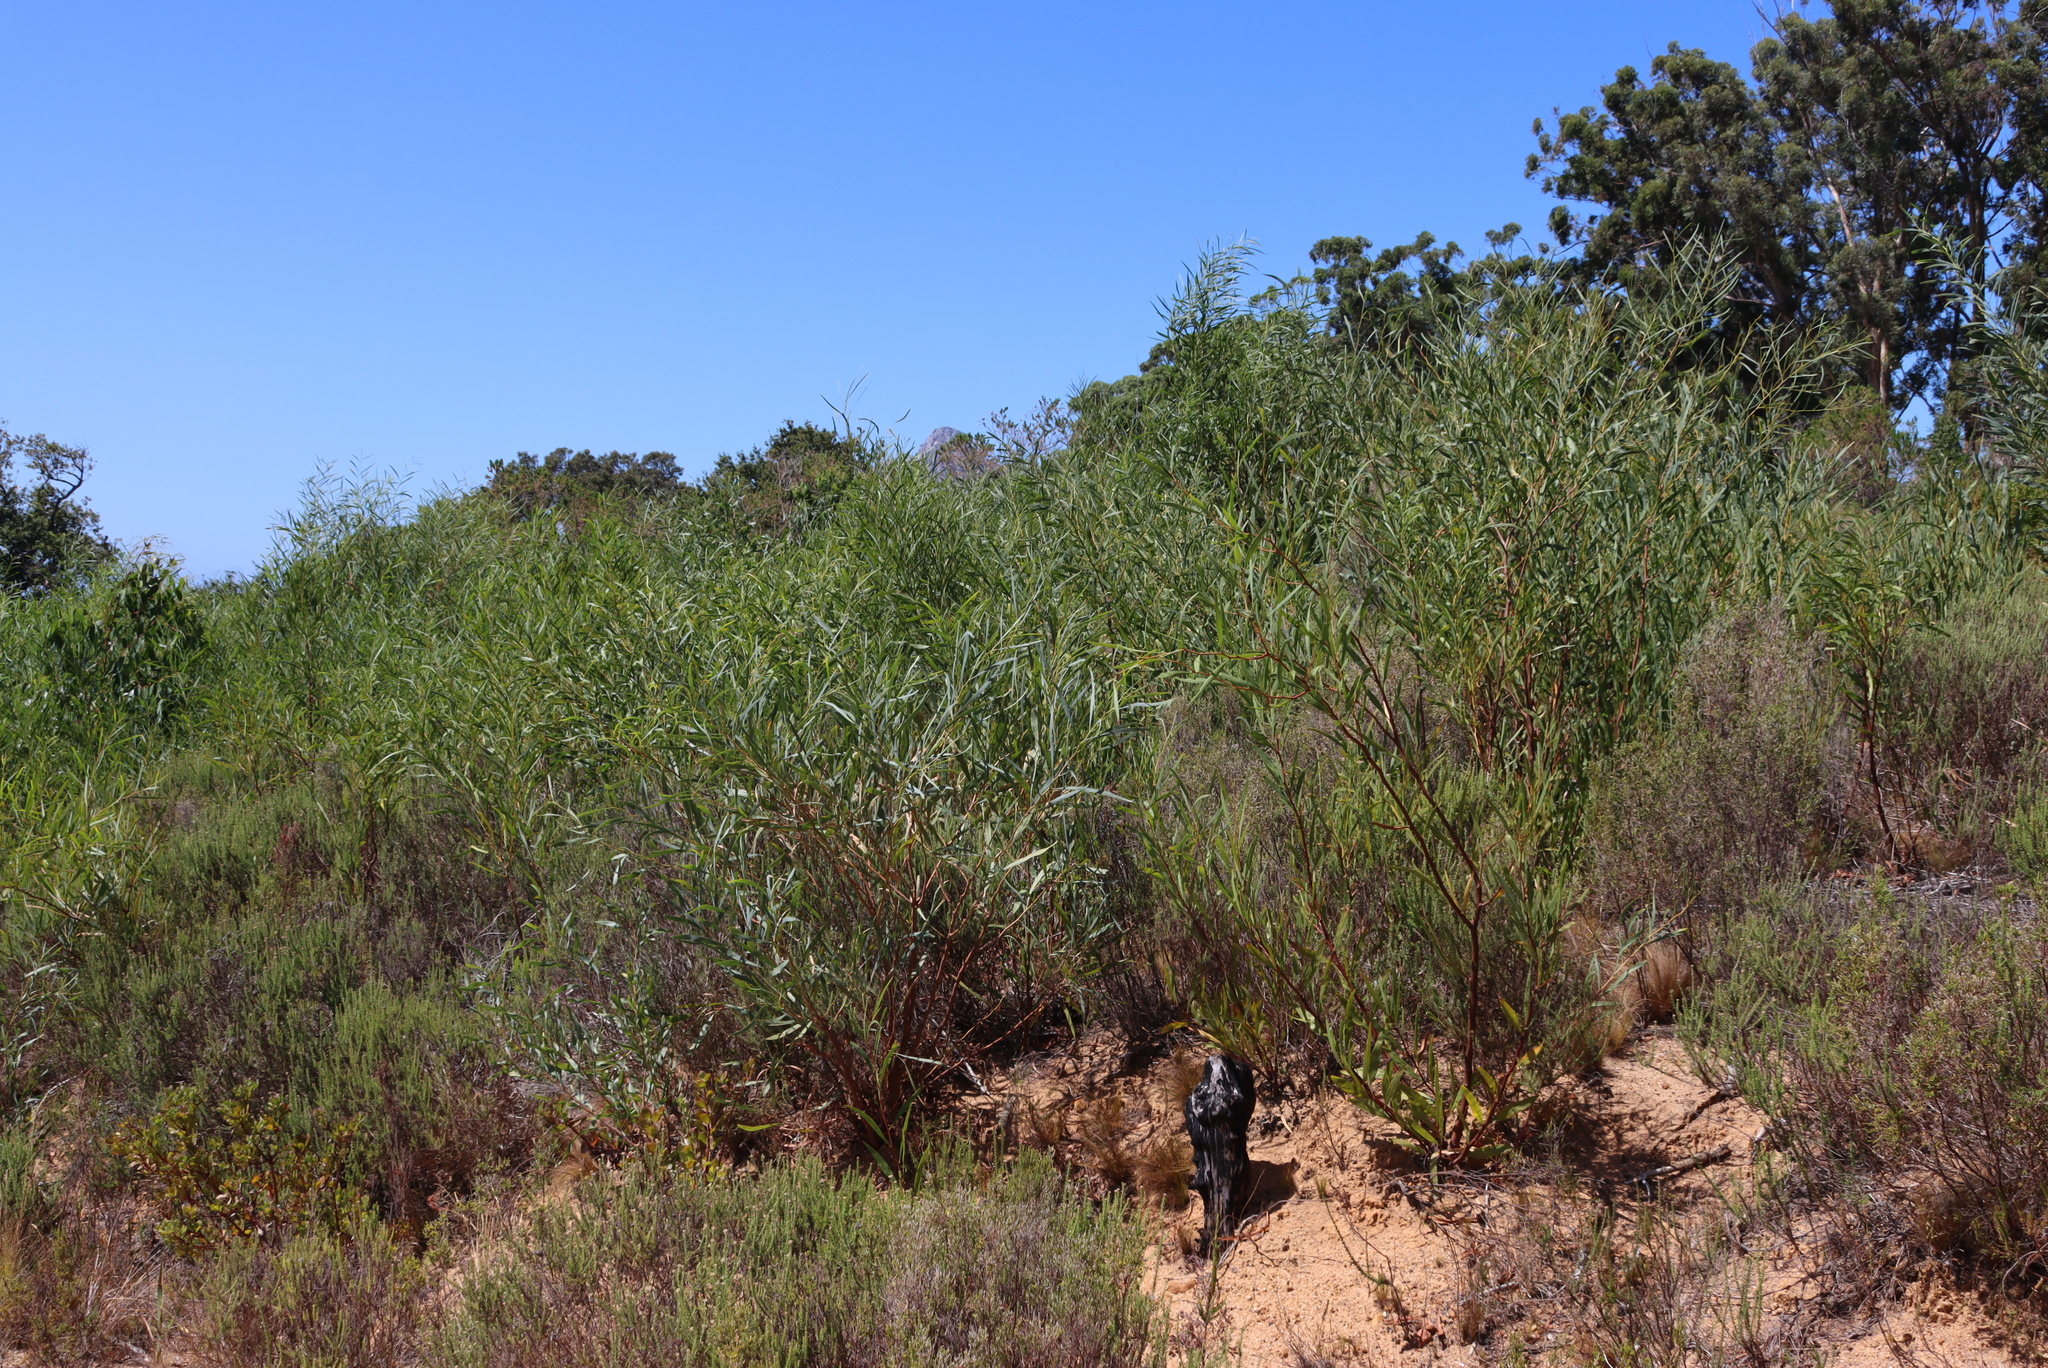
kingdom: Plantae
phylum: Tracheophyta
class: Magnoliopsida
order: Fabales
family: Fabaceae
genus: Acacia
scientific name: Acacia saligna
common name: Orange wattle
